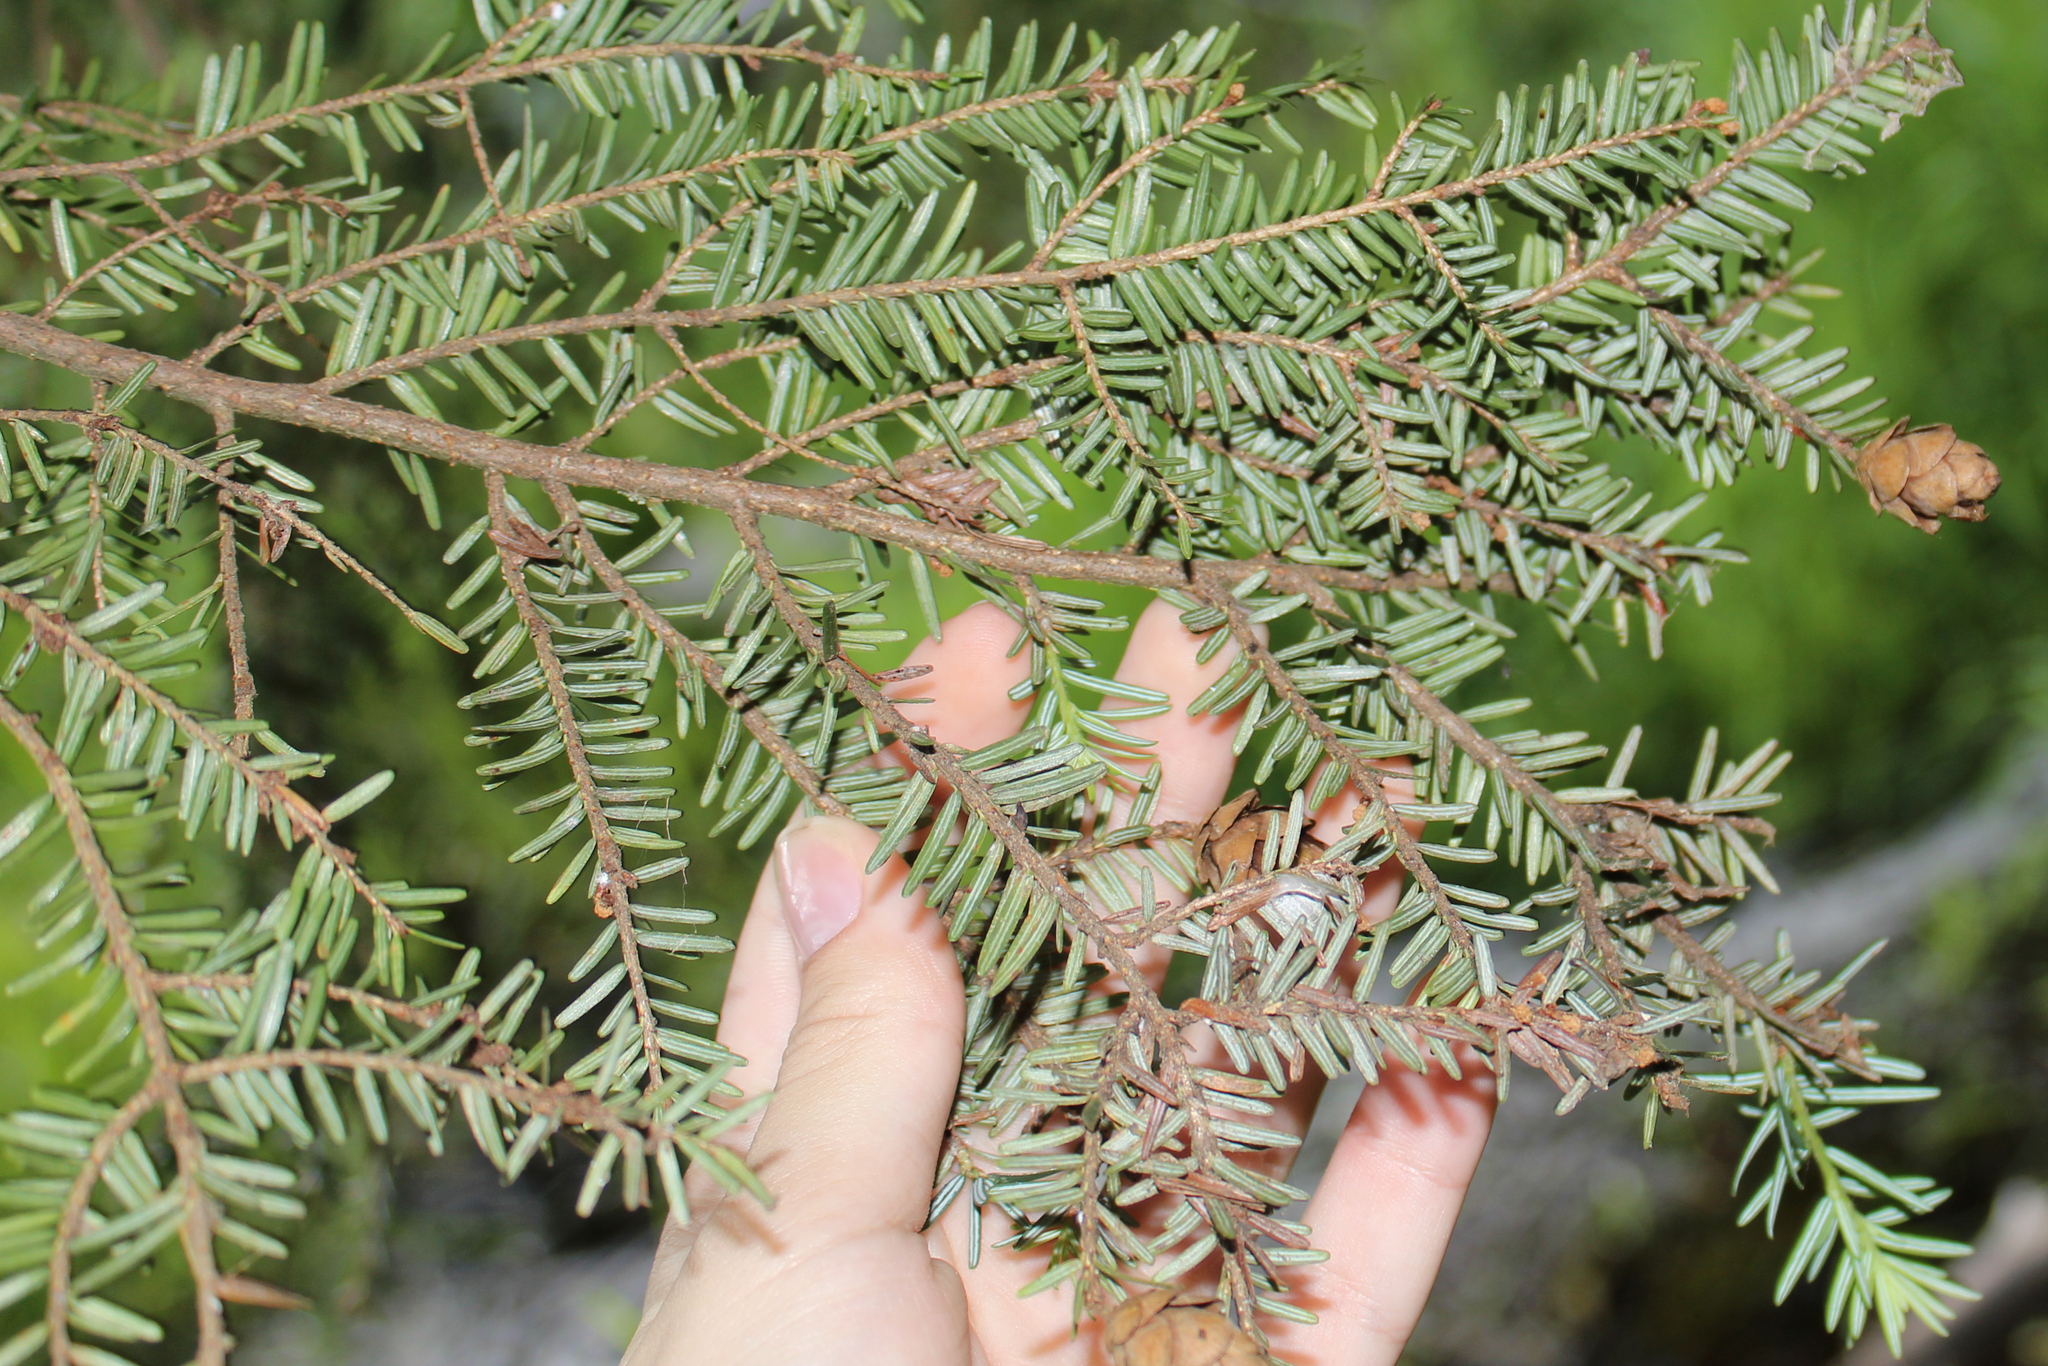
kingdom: Plantae
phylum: Tracheophyta
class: Pinopsida
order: Pinales
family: Pinaceae
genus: Tsuga
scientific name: Tsuga canadensis
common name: Eastern hemlock
